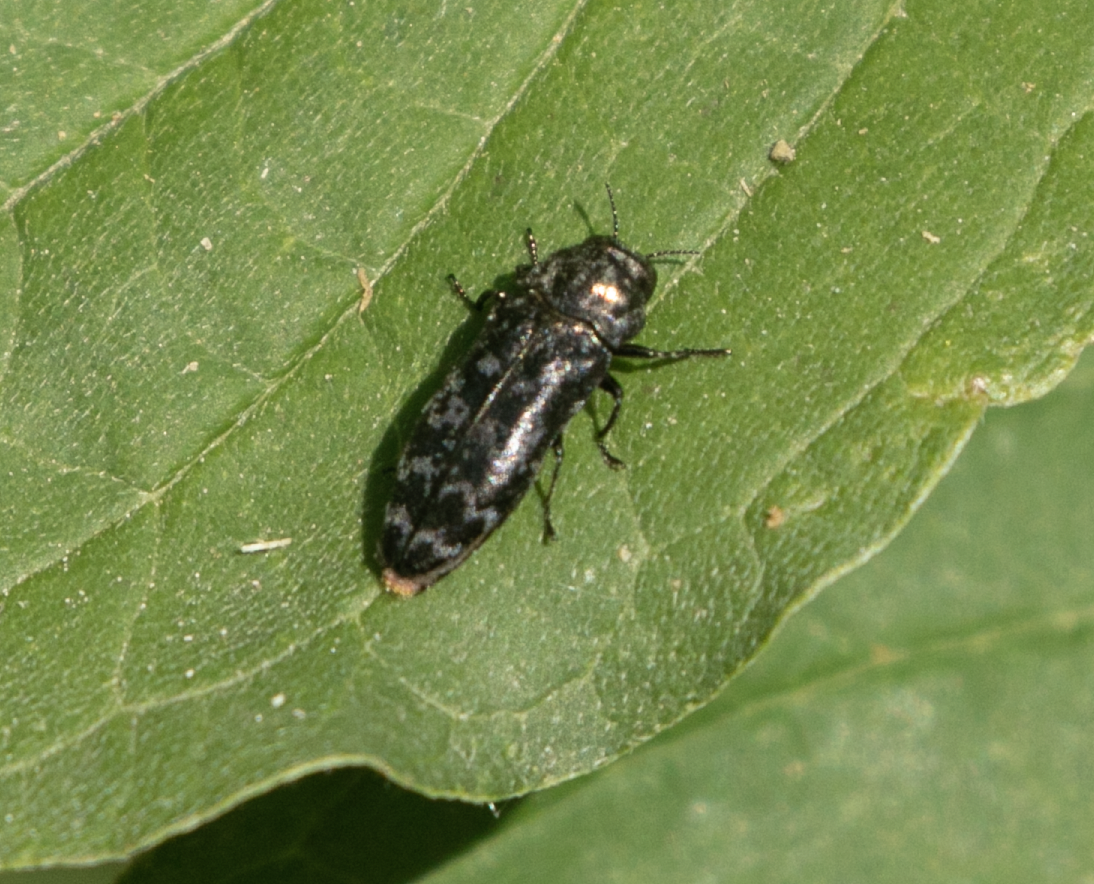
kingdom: Animalia
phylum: Arthropoda
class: Insecta
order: Coleoptera
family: Buprestidae
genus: Coraebus
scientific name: Coraebus rubi
